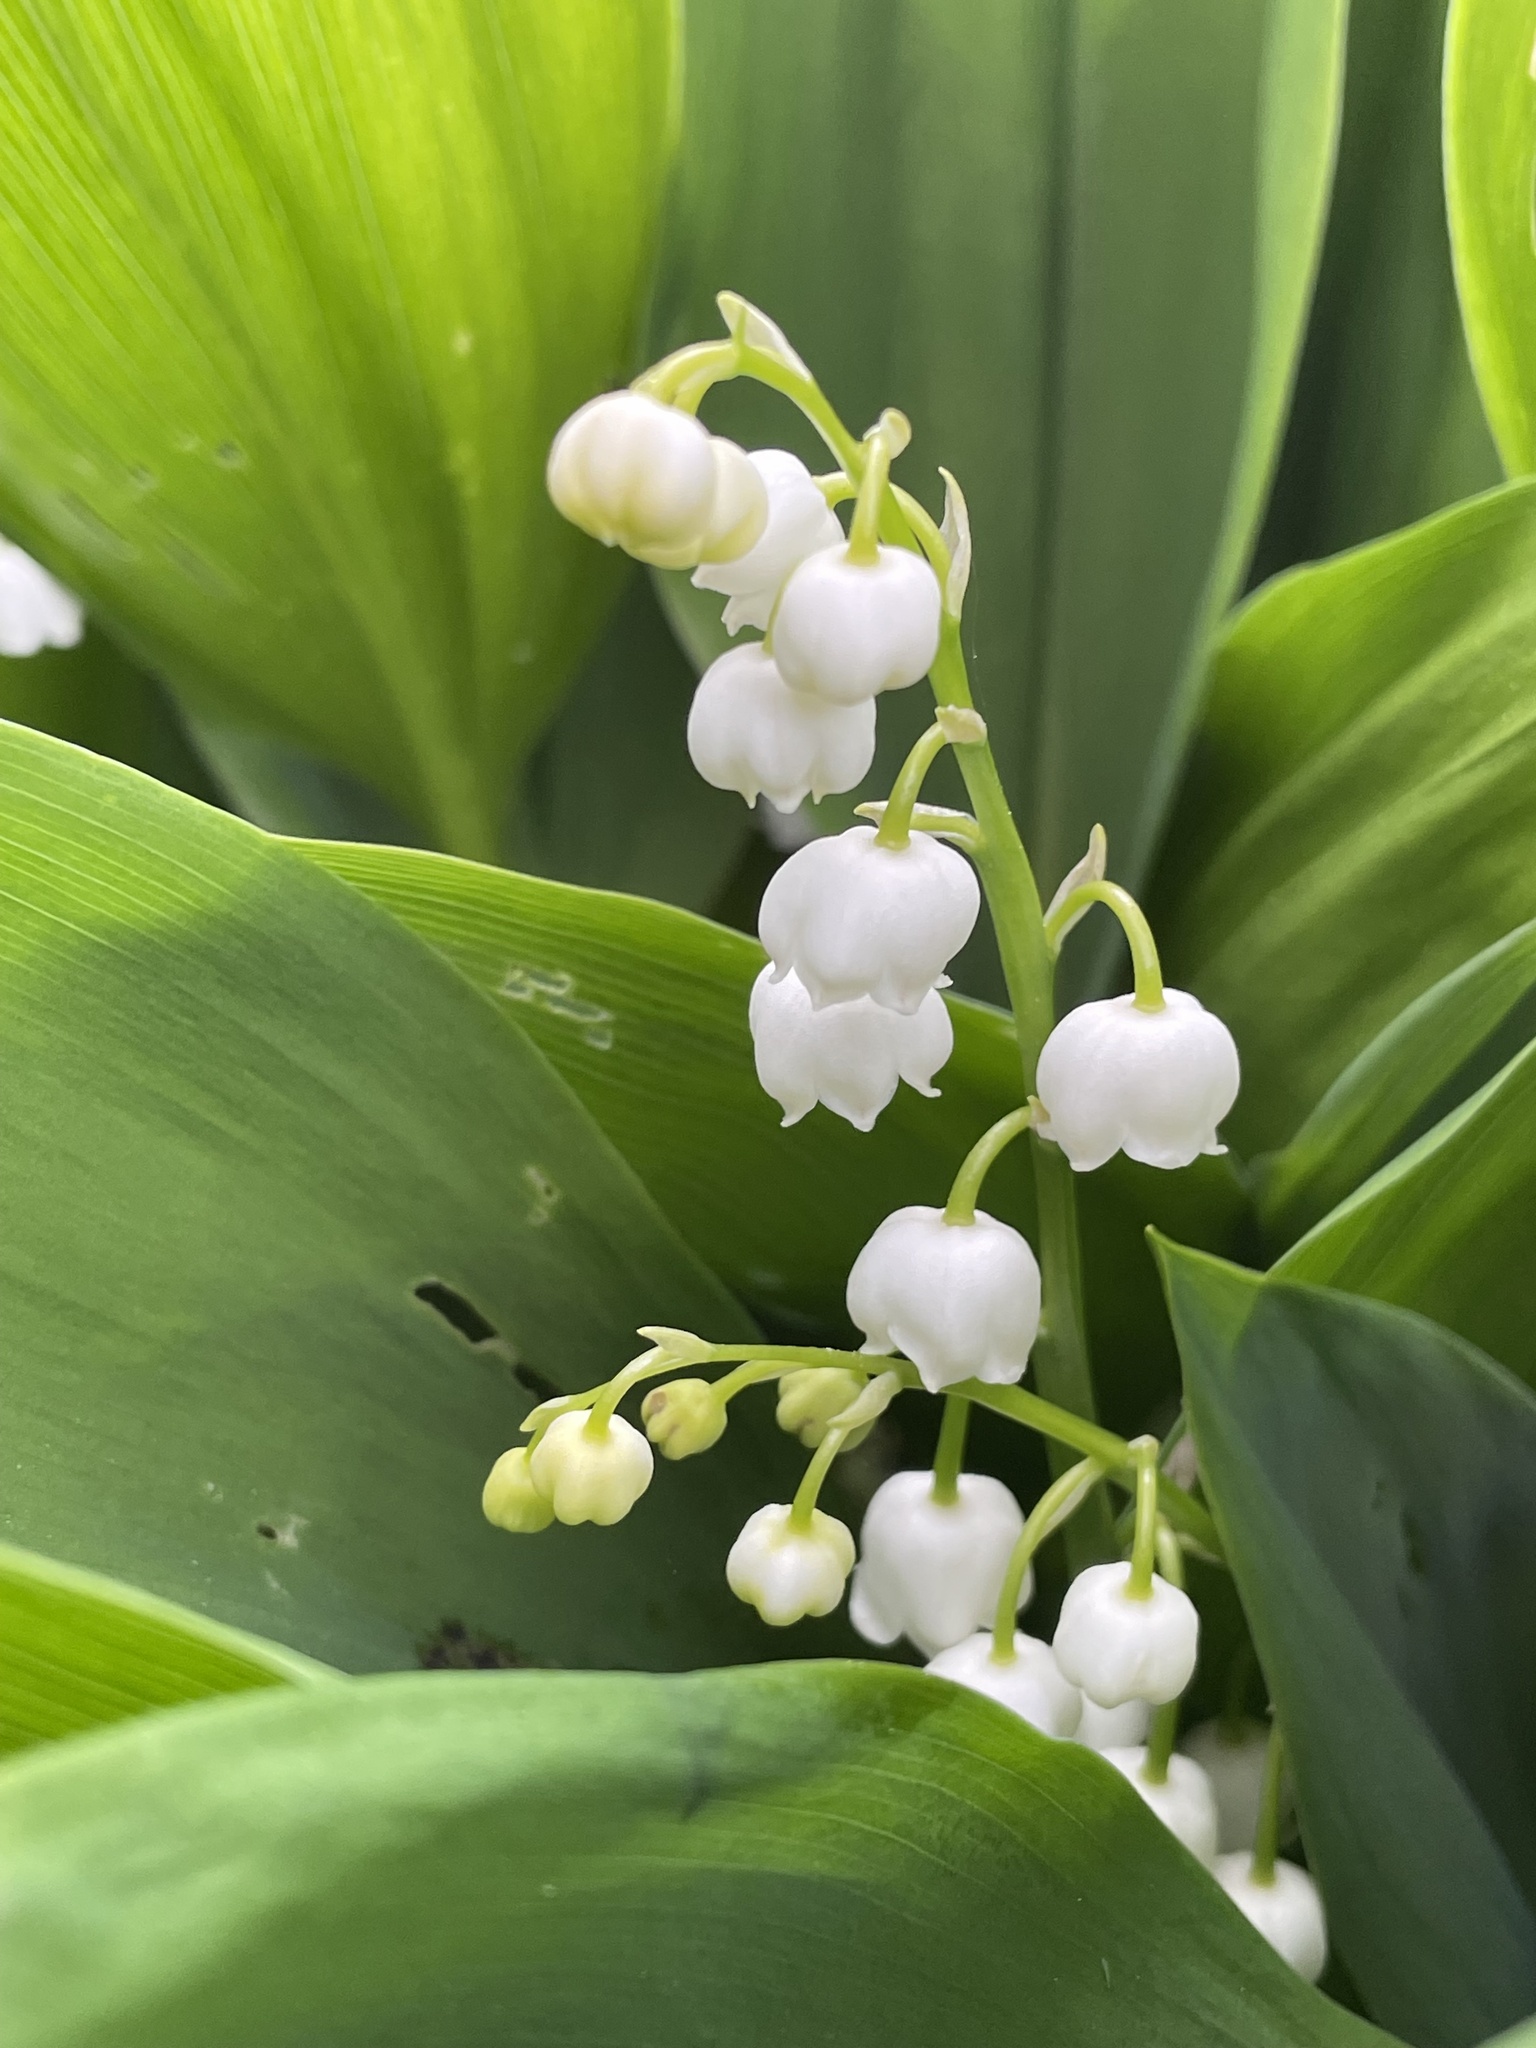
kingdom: Plantae
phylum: Tracheophyta
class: Liliopsida
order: Asparagales
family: Asparagaceae
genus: Convallaria
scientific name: Convallaria majalis
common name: Lily-of-the-valley
